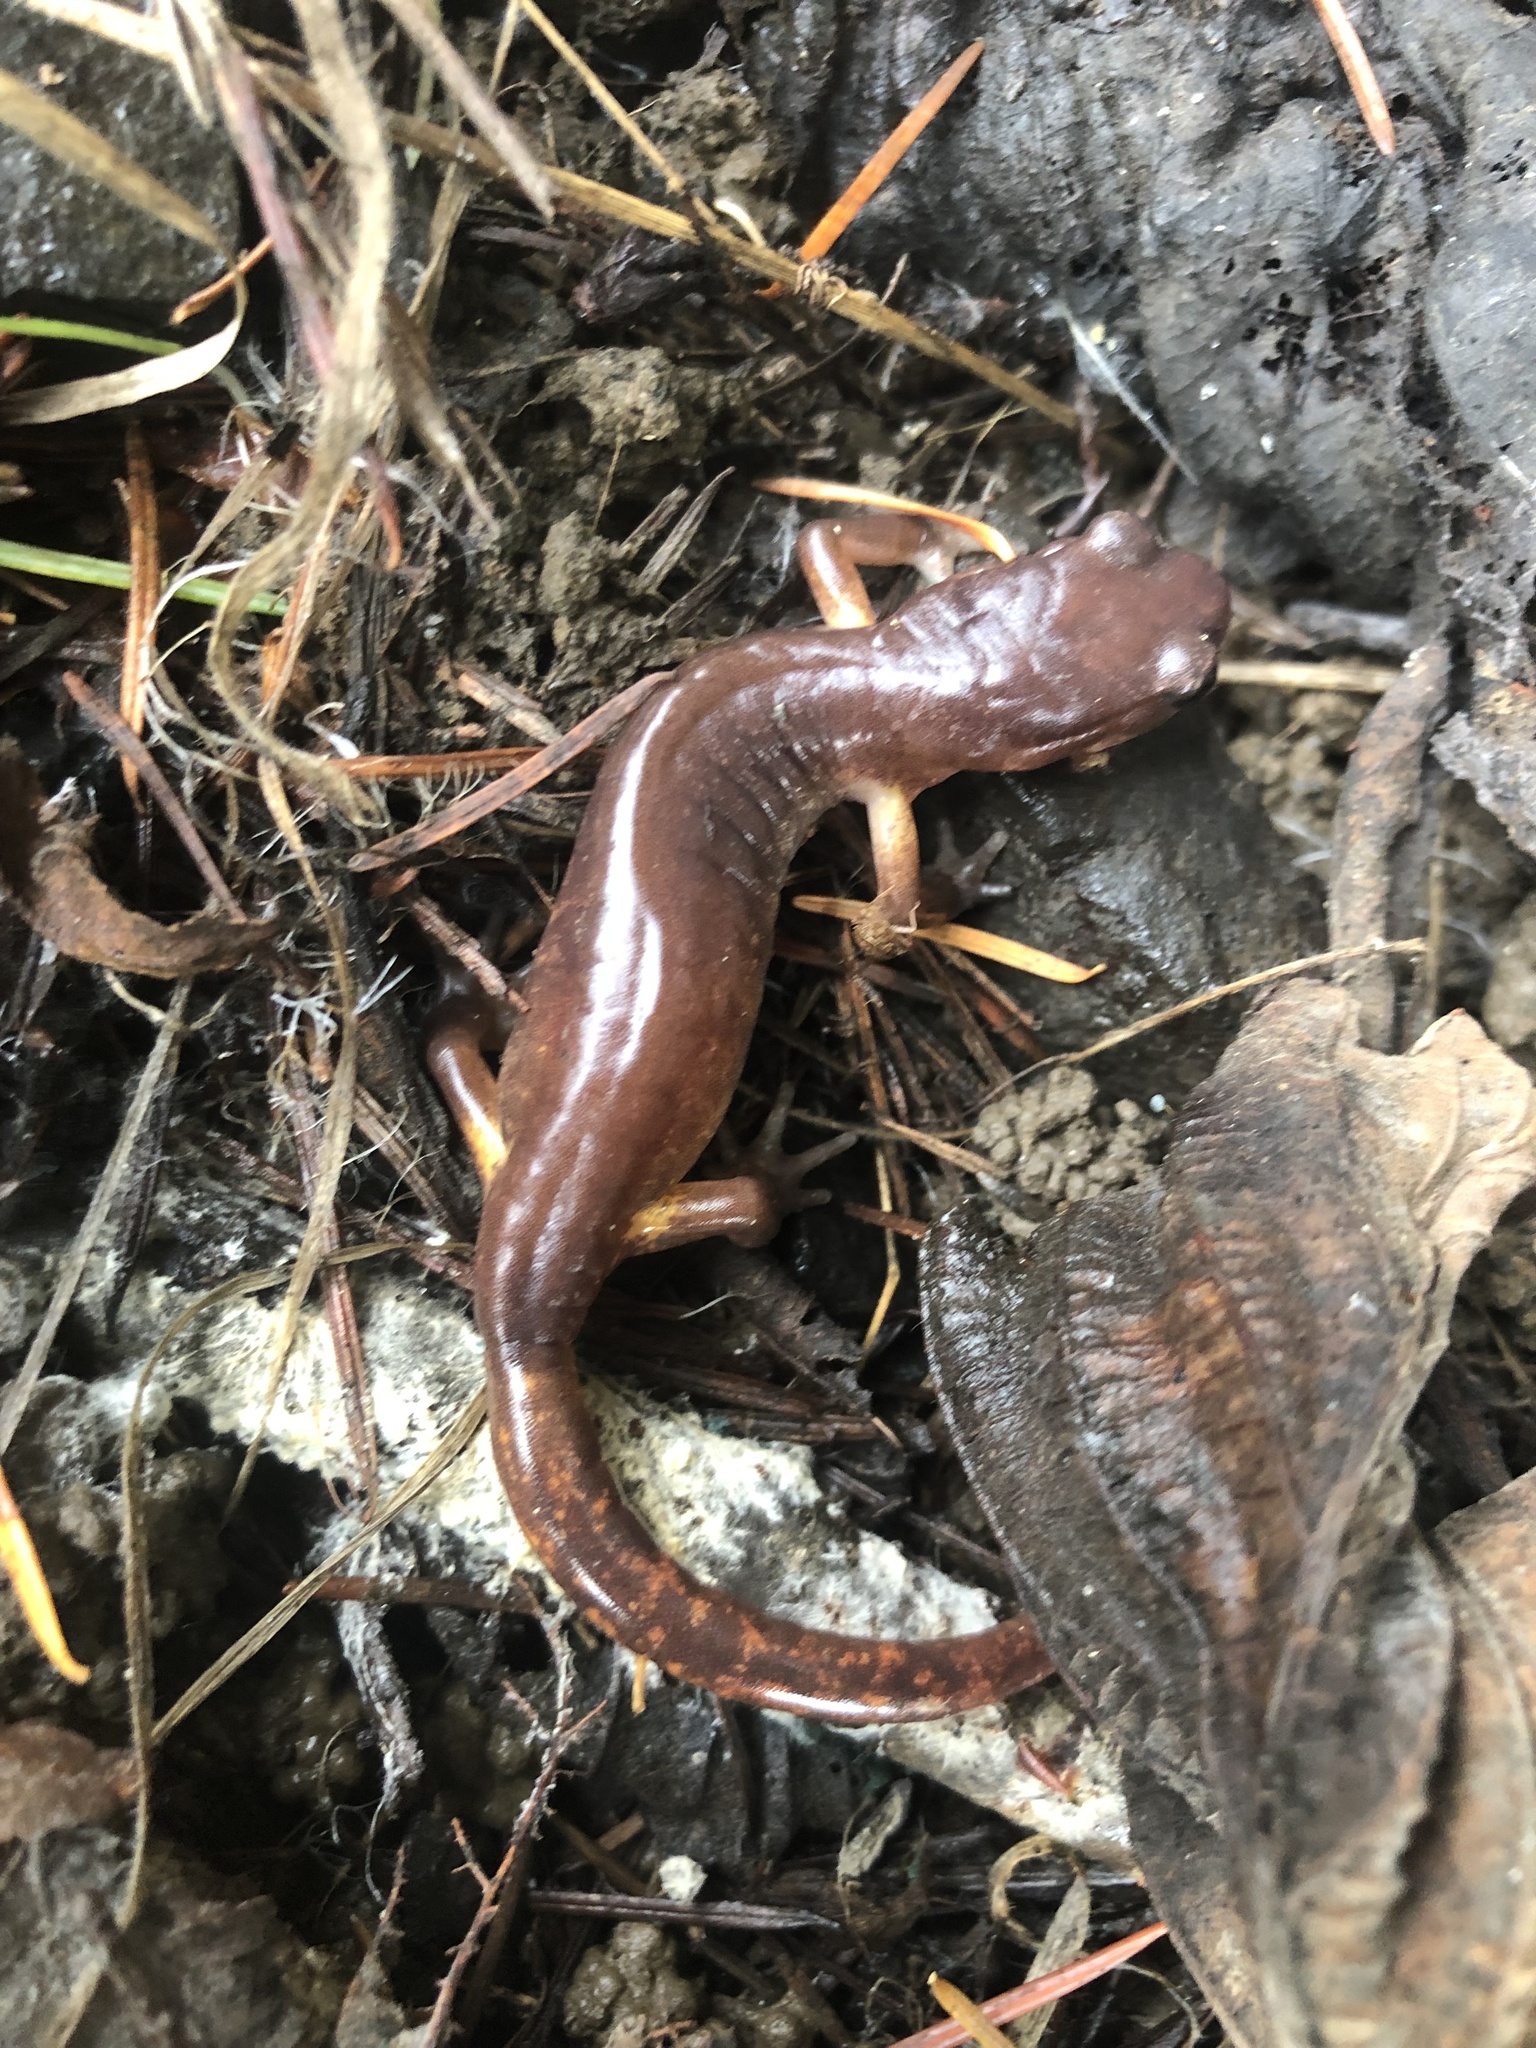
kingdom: Animalia
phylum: Chordata
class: Amphibia
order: Caudata
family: Plethodontidae
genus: Ensatina
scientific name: Ensatina eschscholtzii
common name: Ensatina
